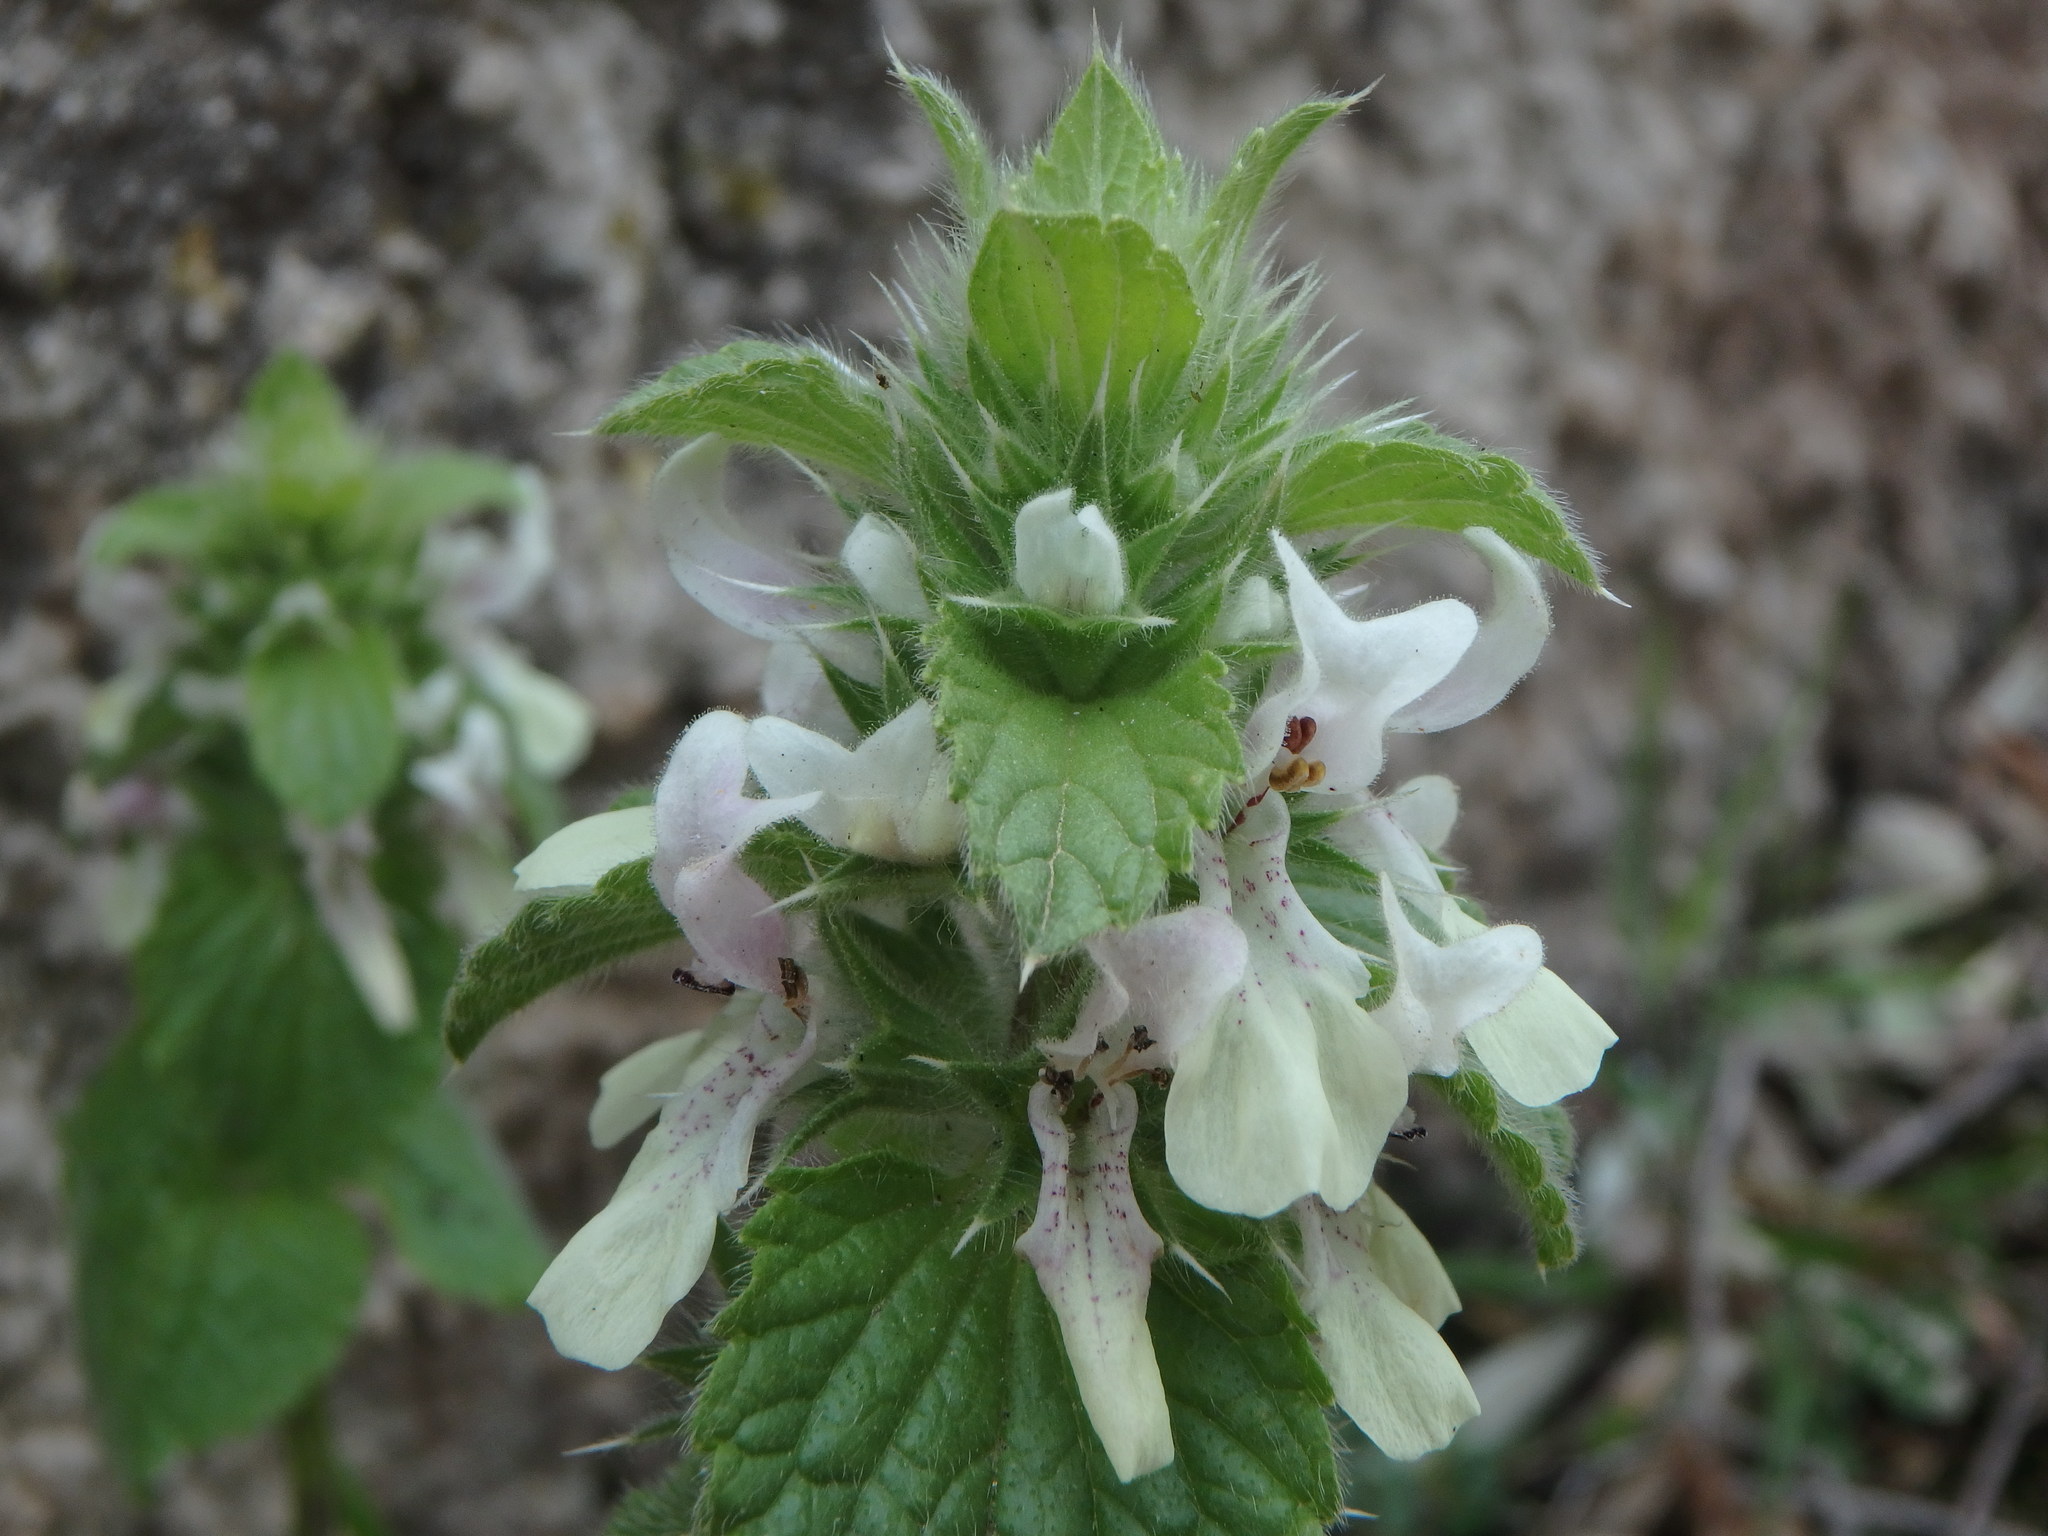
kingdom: Plantae
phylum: Tracheophyta
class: Magnoliopsida
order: Lamiales
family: Lamiaceae
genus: Stachys
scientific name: Stachys ocymastrum
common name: Italian hedgenettle
